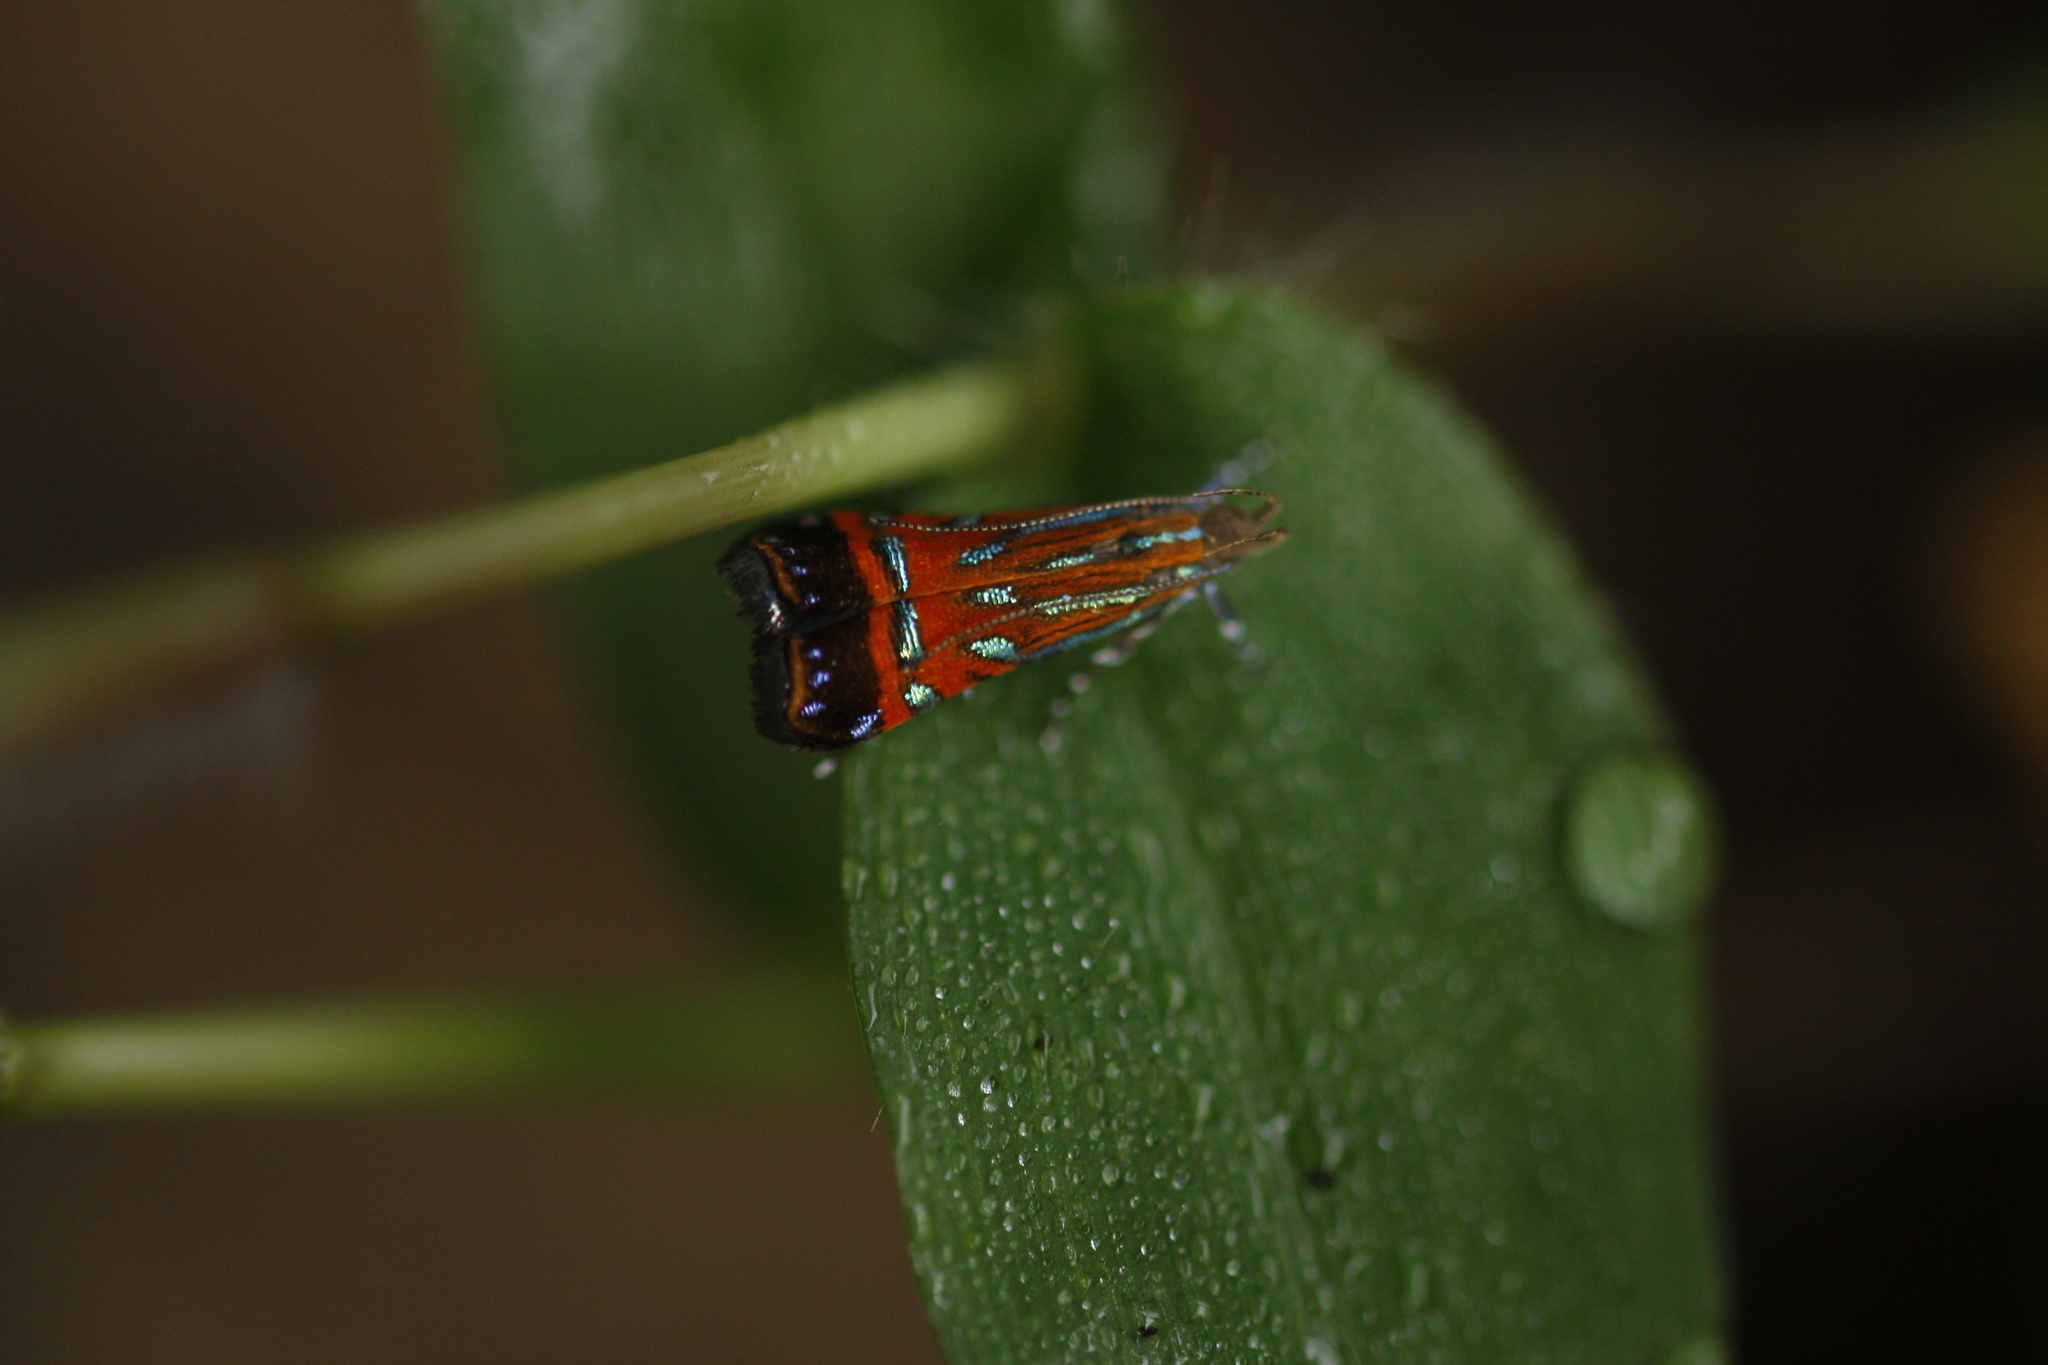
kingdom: Animalia
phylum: Arthropoda
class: Insecta
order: Lepidoptera
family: Gelechiidae
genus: Tricyanaula
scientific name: Tricyanaula aurantiaca
